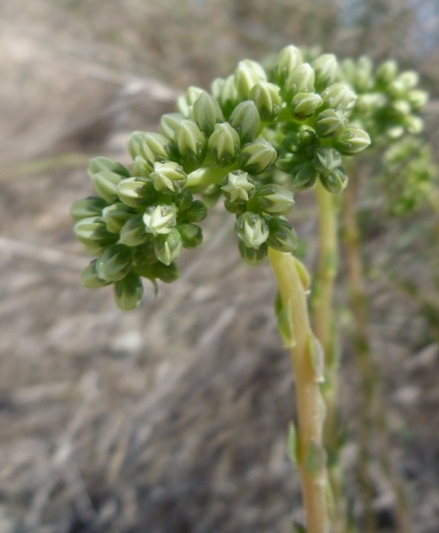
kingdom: Plantae
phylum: Tracheophyta
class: Magnoliopsida
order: Saxifragales
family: Crassulaceae
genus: Petrosedum
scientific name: Petrosedum sediforme
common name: Pale stonecrop
